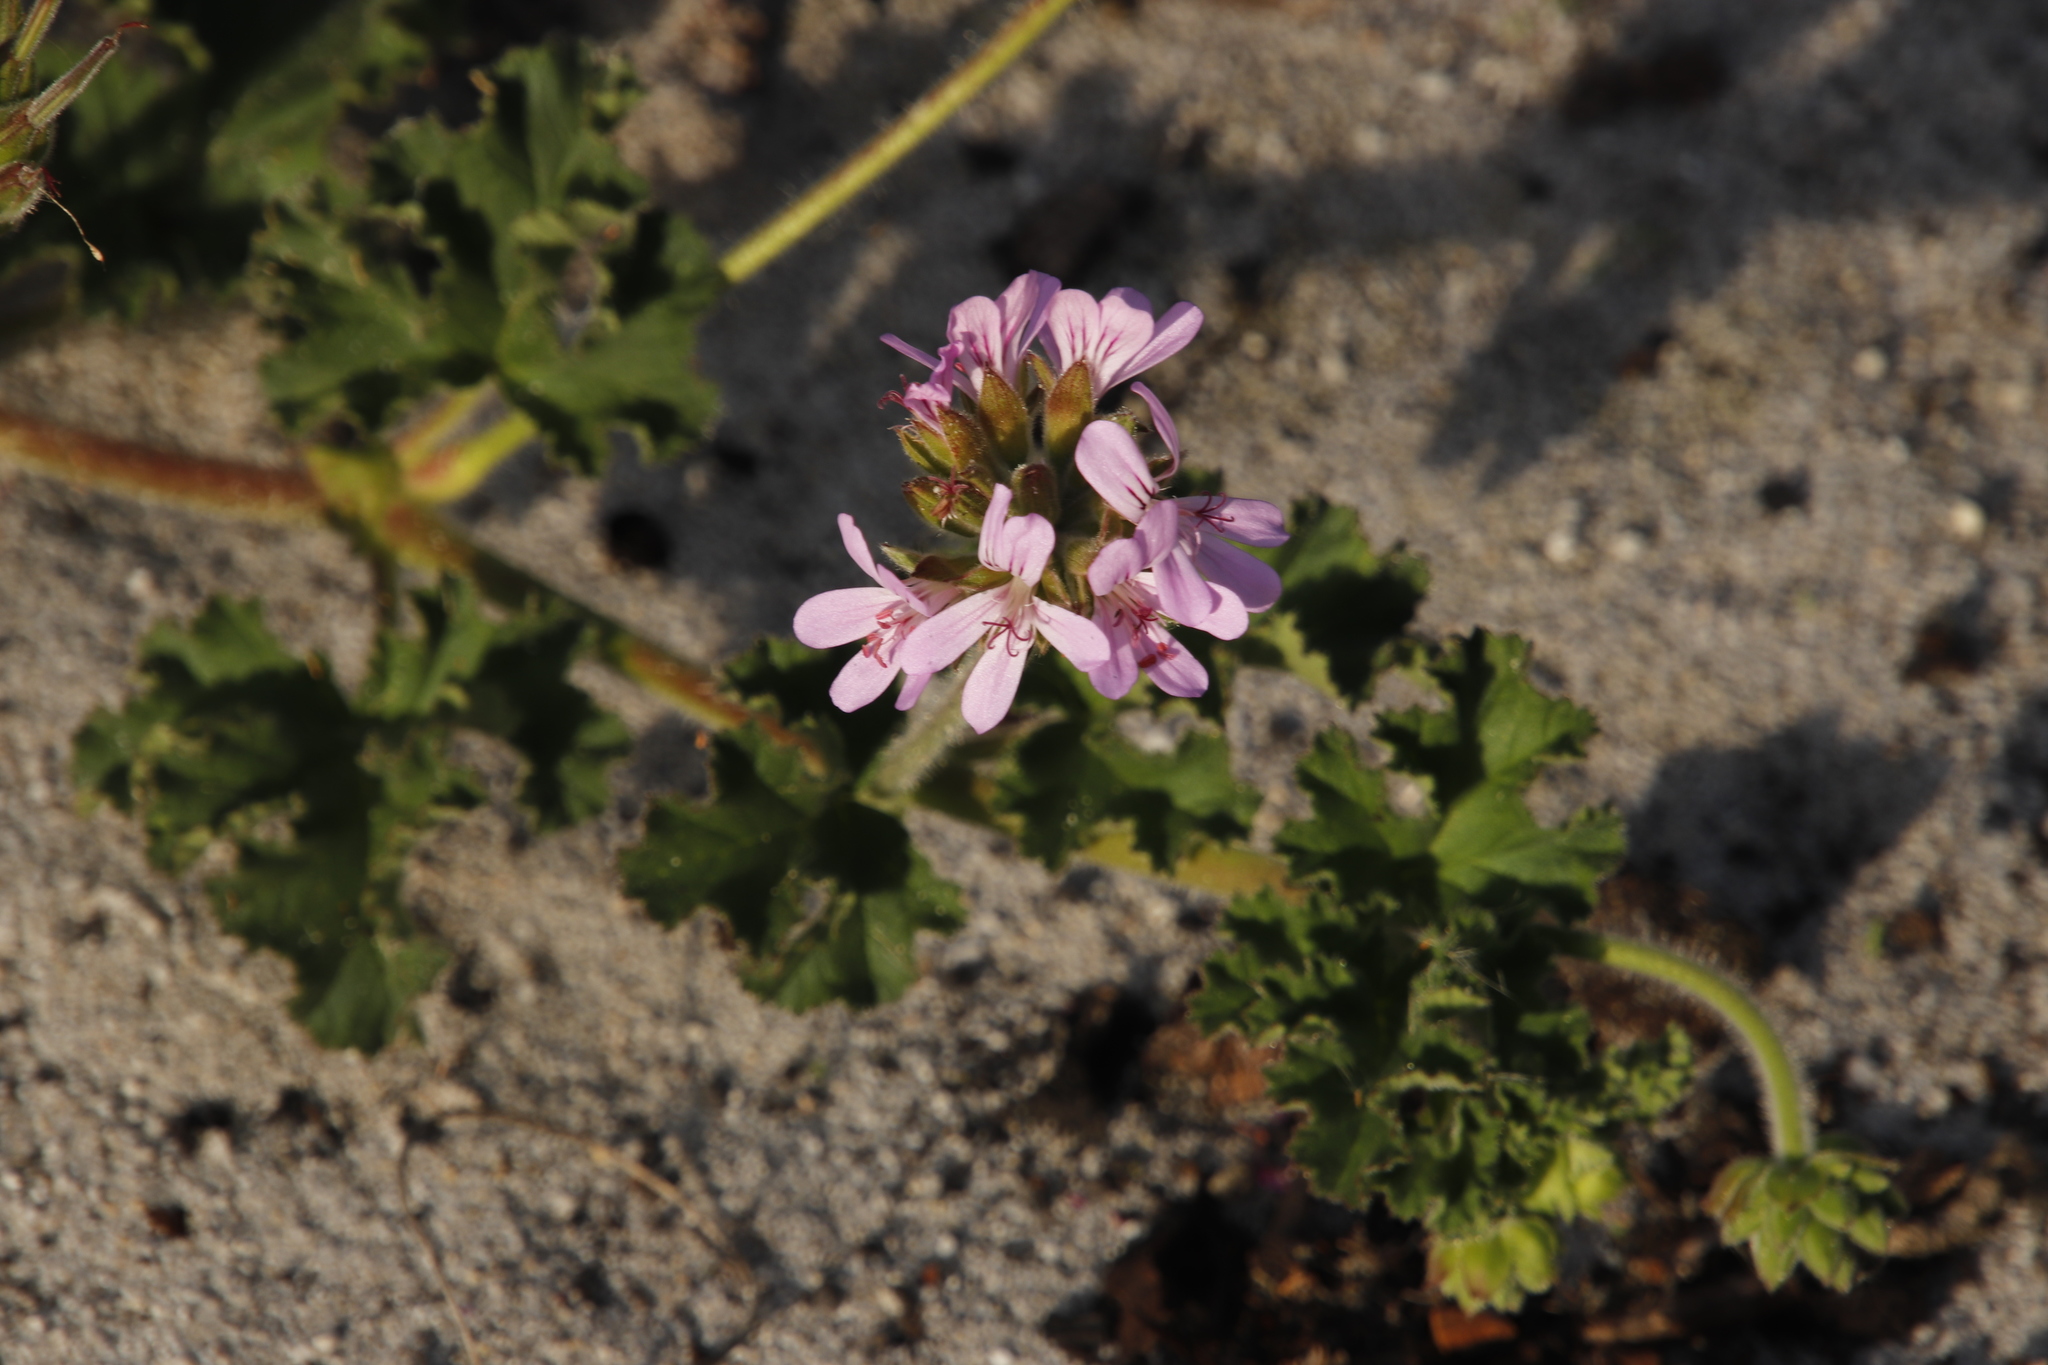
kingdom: Plantae
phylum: Tracheophyta
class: Magnoliopsida
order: Geraniales
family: Geraniaceae
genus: Pelargonium
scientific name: Pelargonium capitatum
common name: Rose scented geranium
